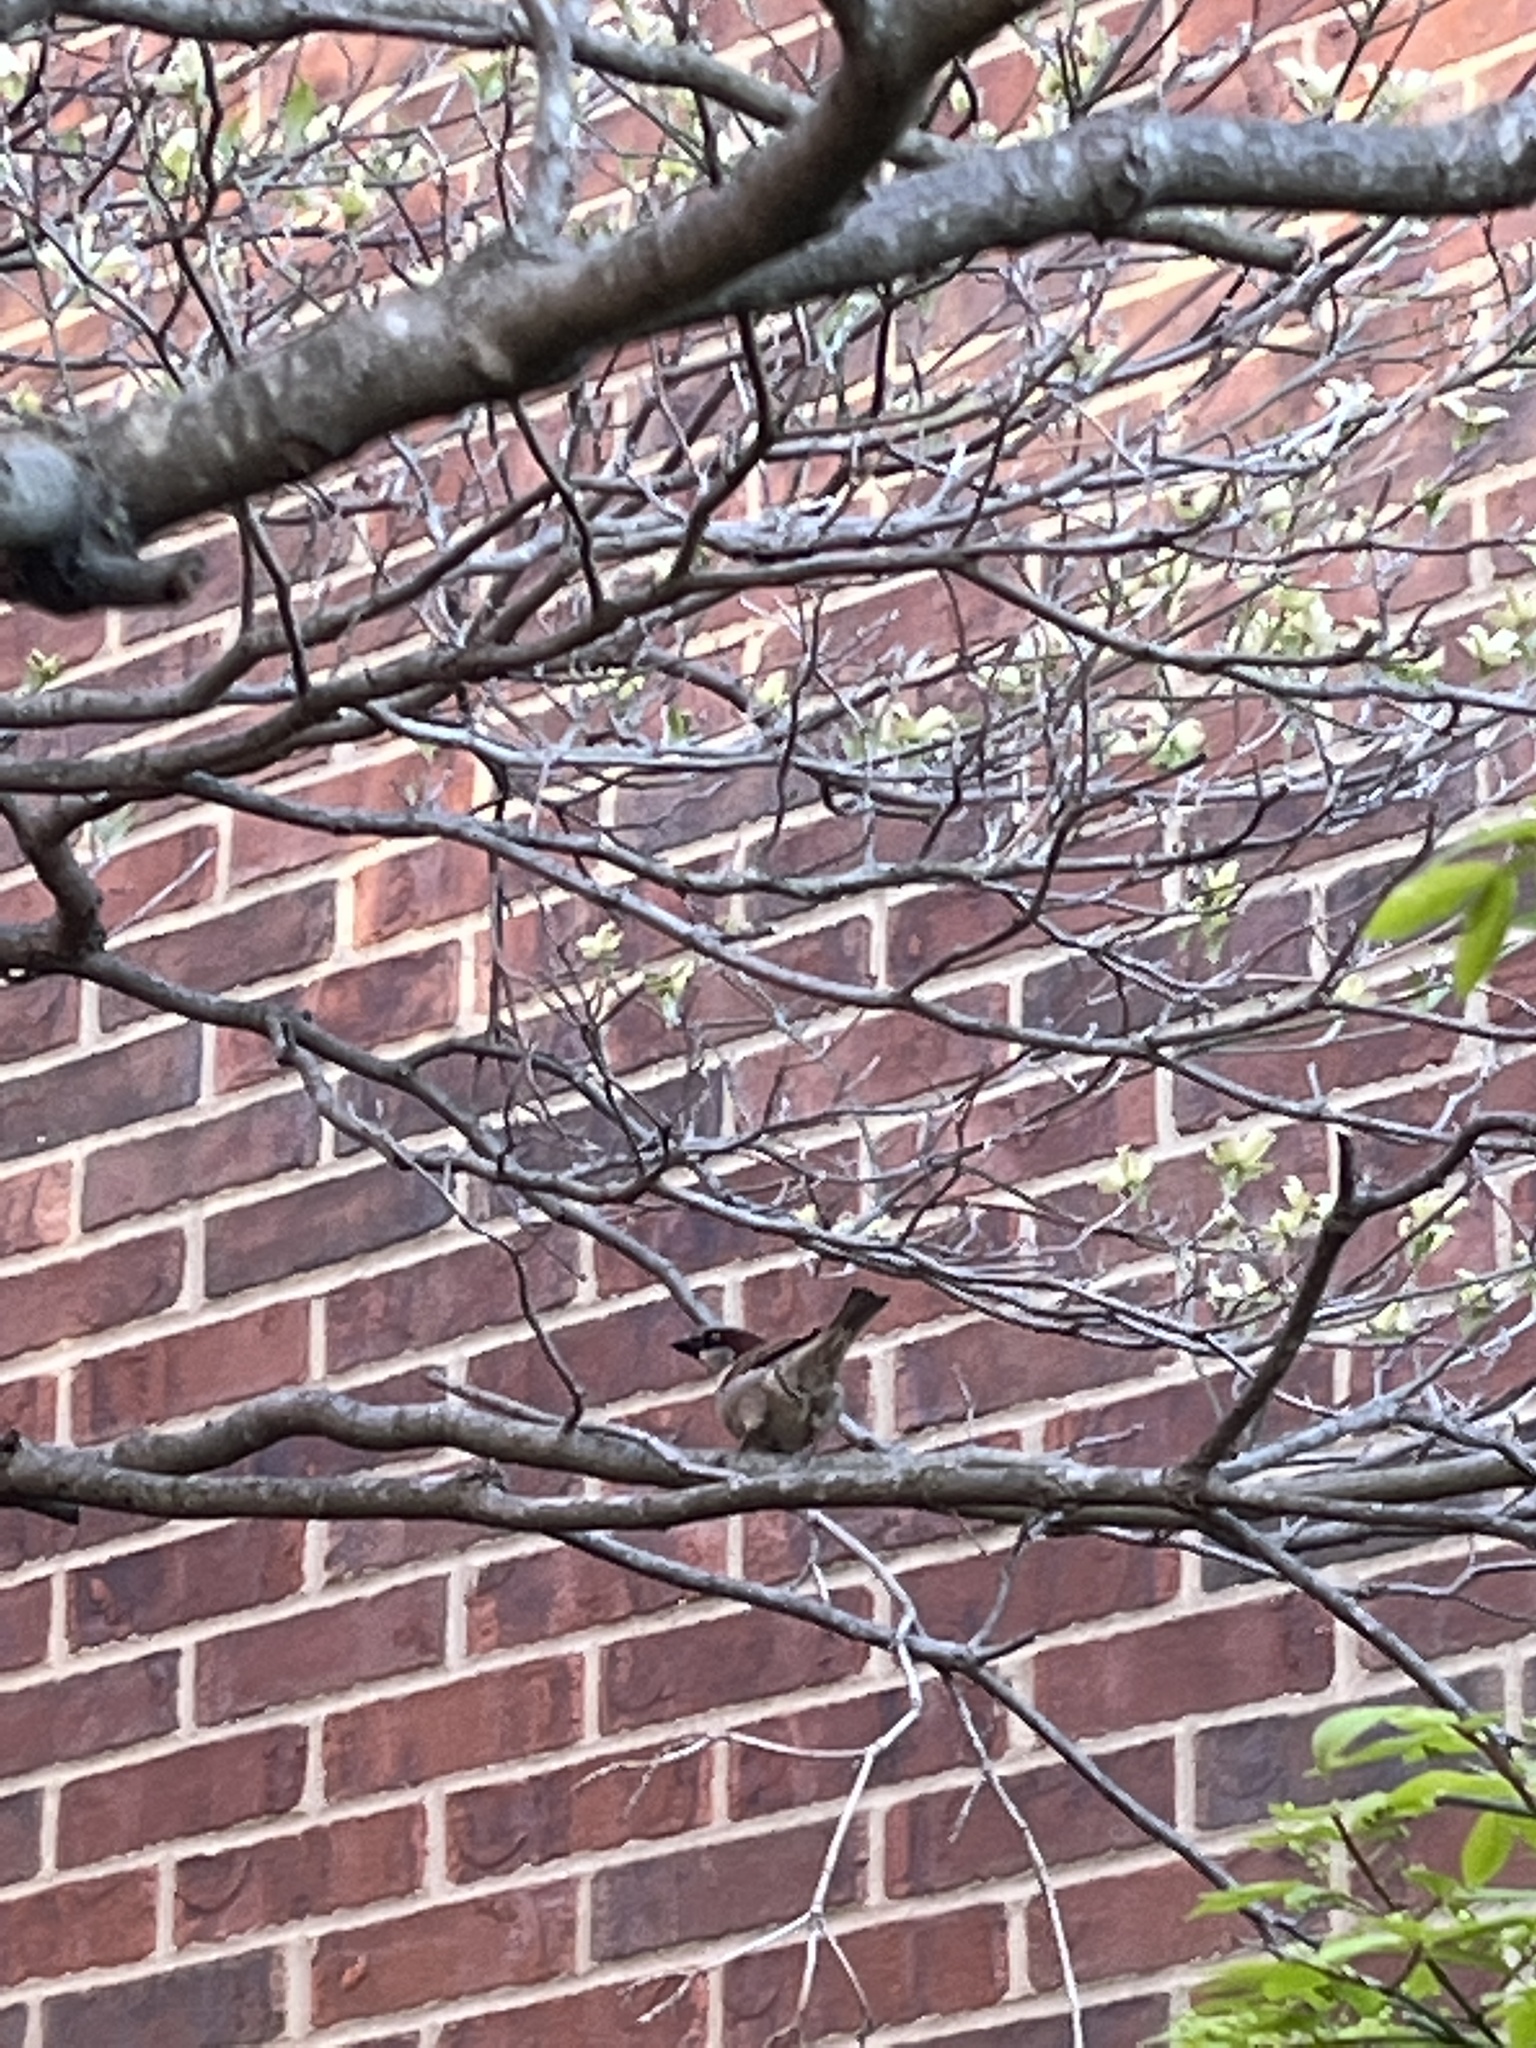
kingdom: Animalia
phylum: Chordata
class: Aves
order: Passeriformes
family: Passeridae
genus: Passer
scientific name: Passer domesticus
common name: House sparrow
